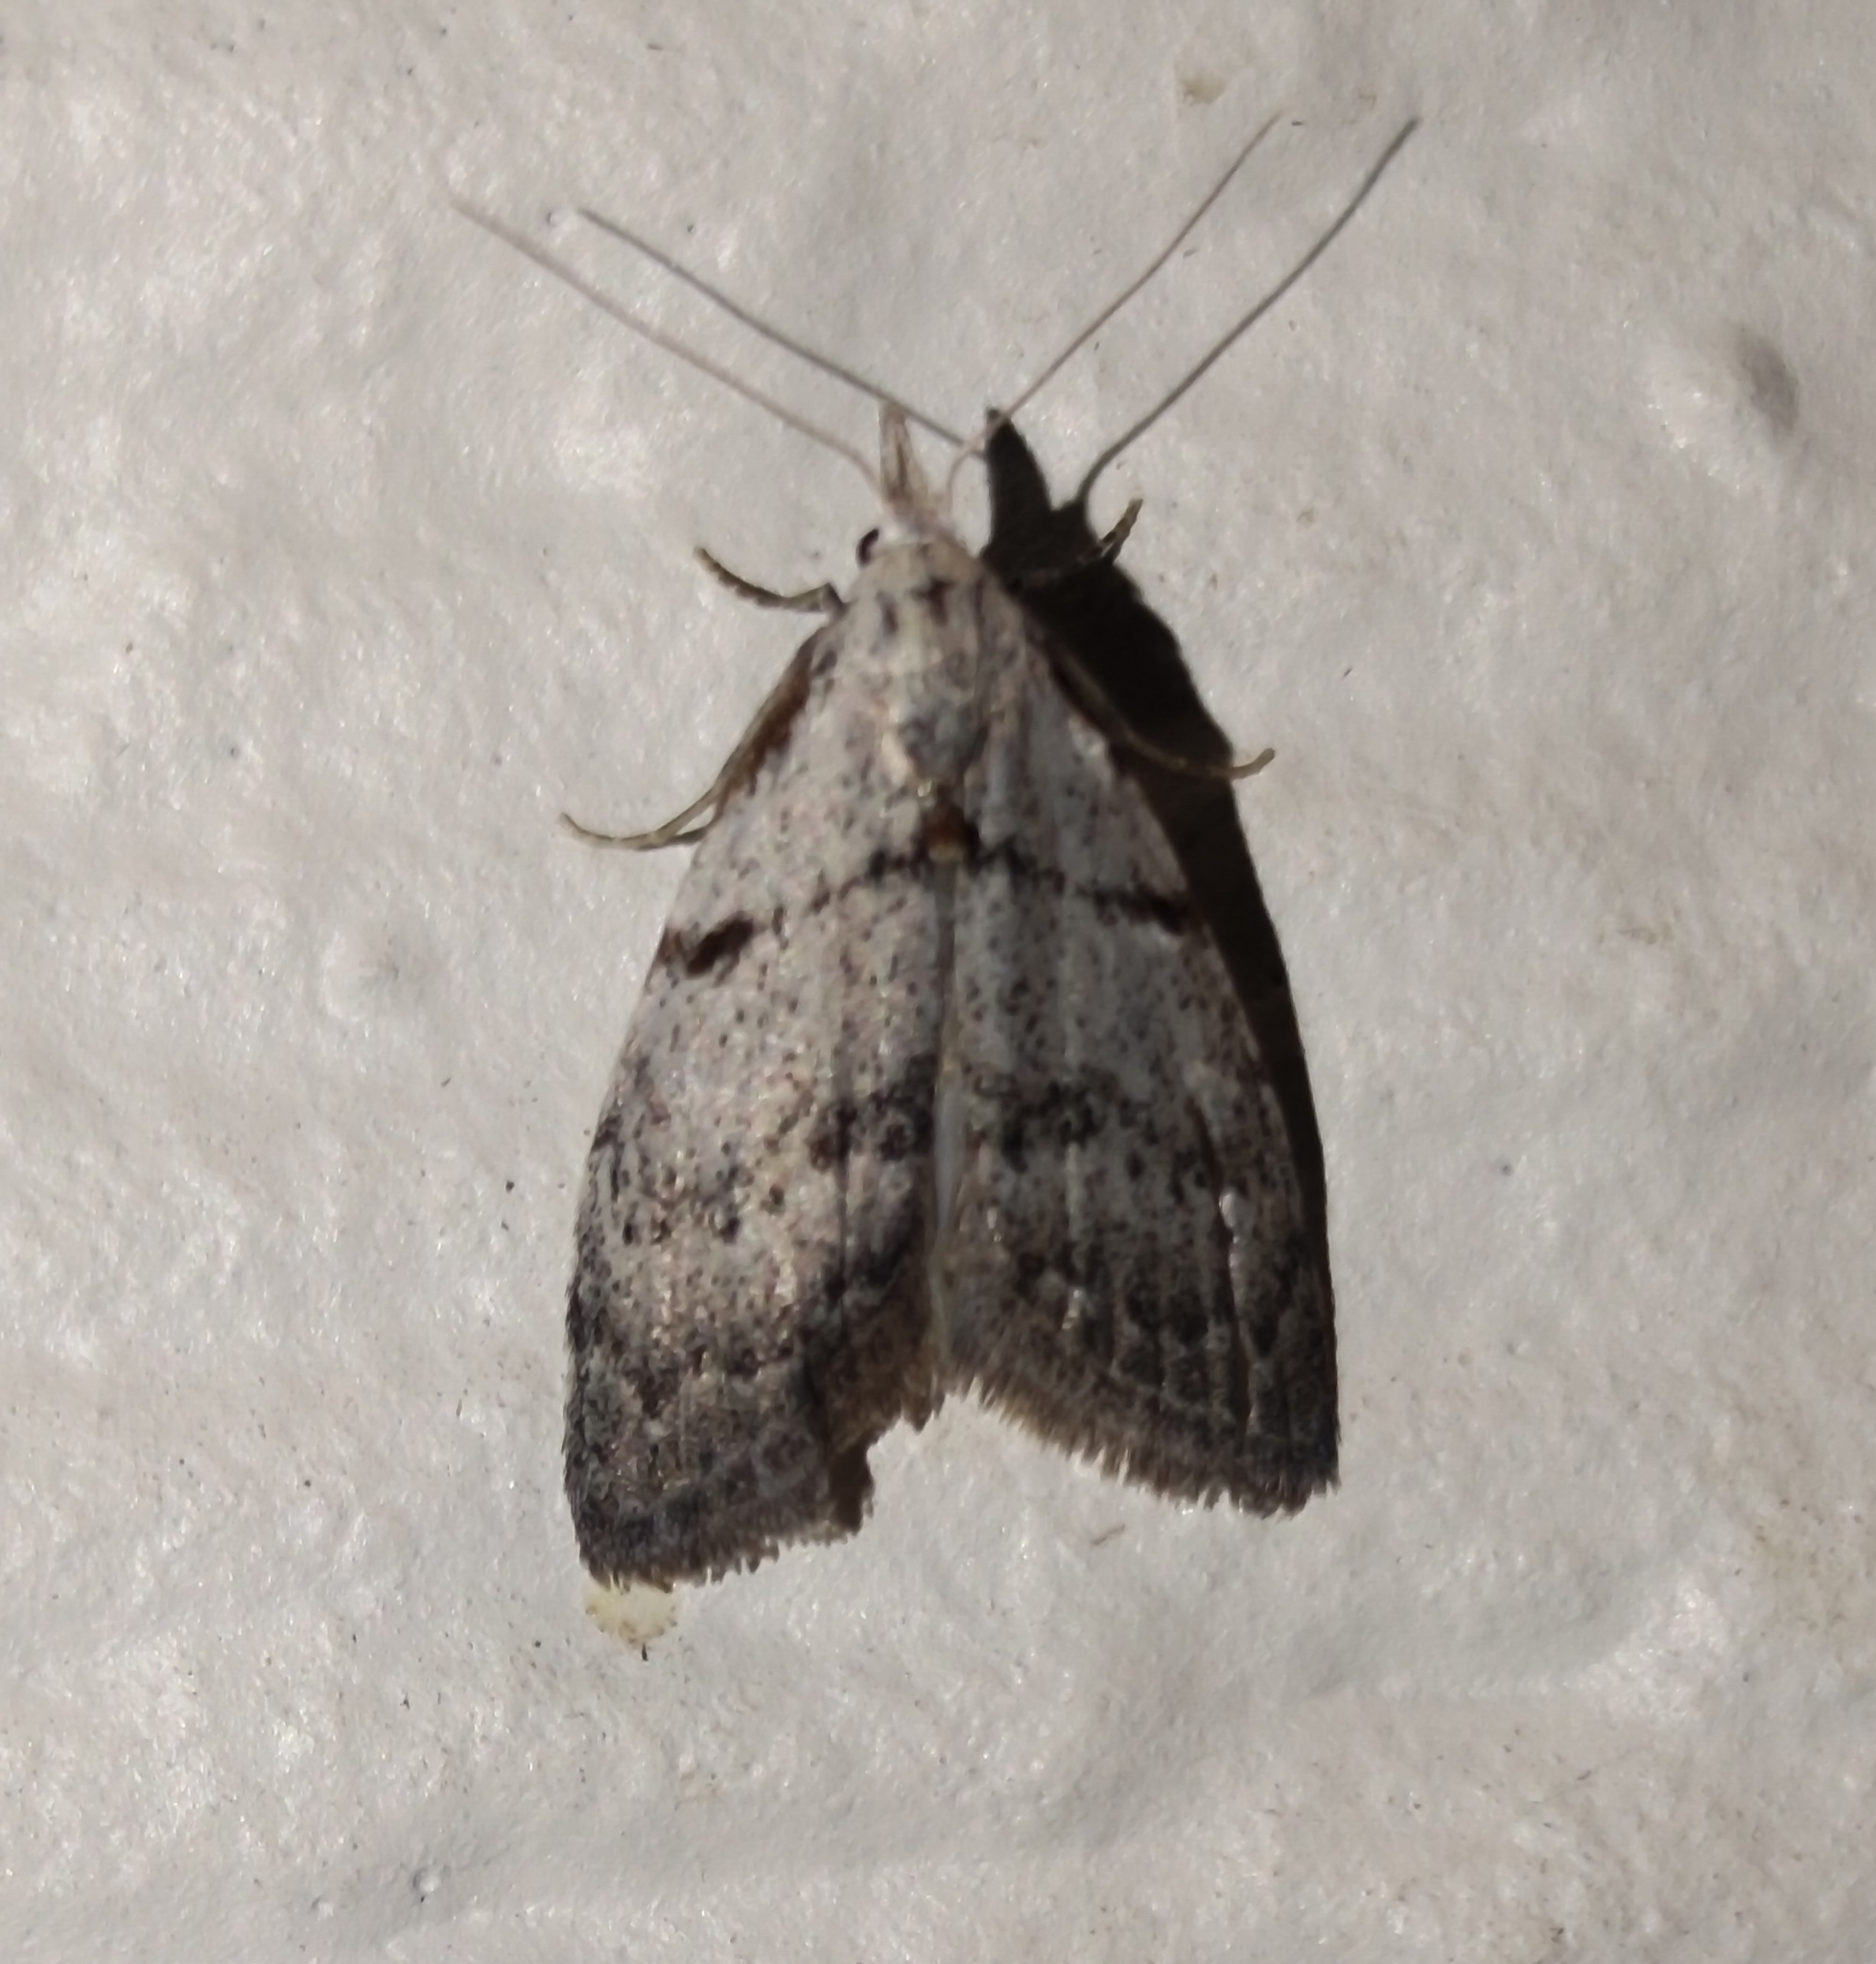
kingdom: Animalia
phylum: Arthropoda
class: Insecta
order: Lepidoptera
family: Nolidae
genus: Nola
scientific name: Nola minna
